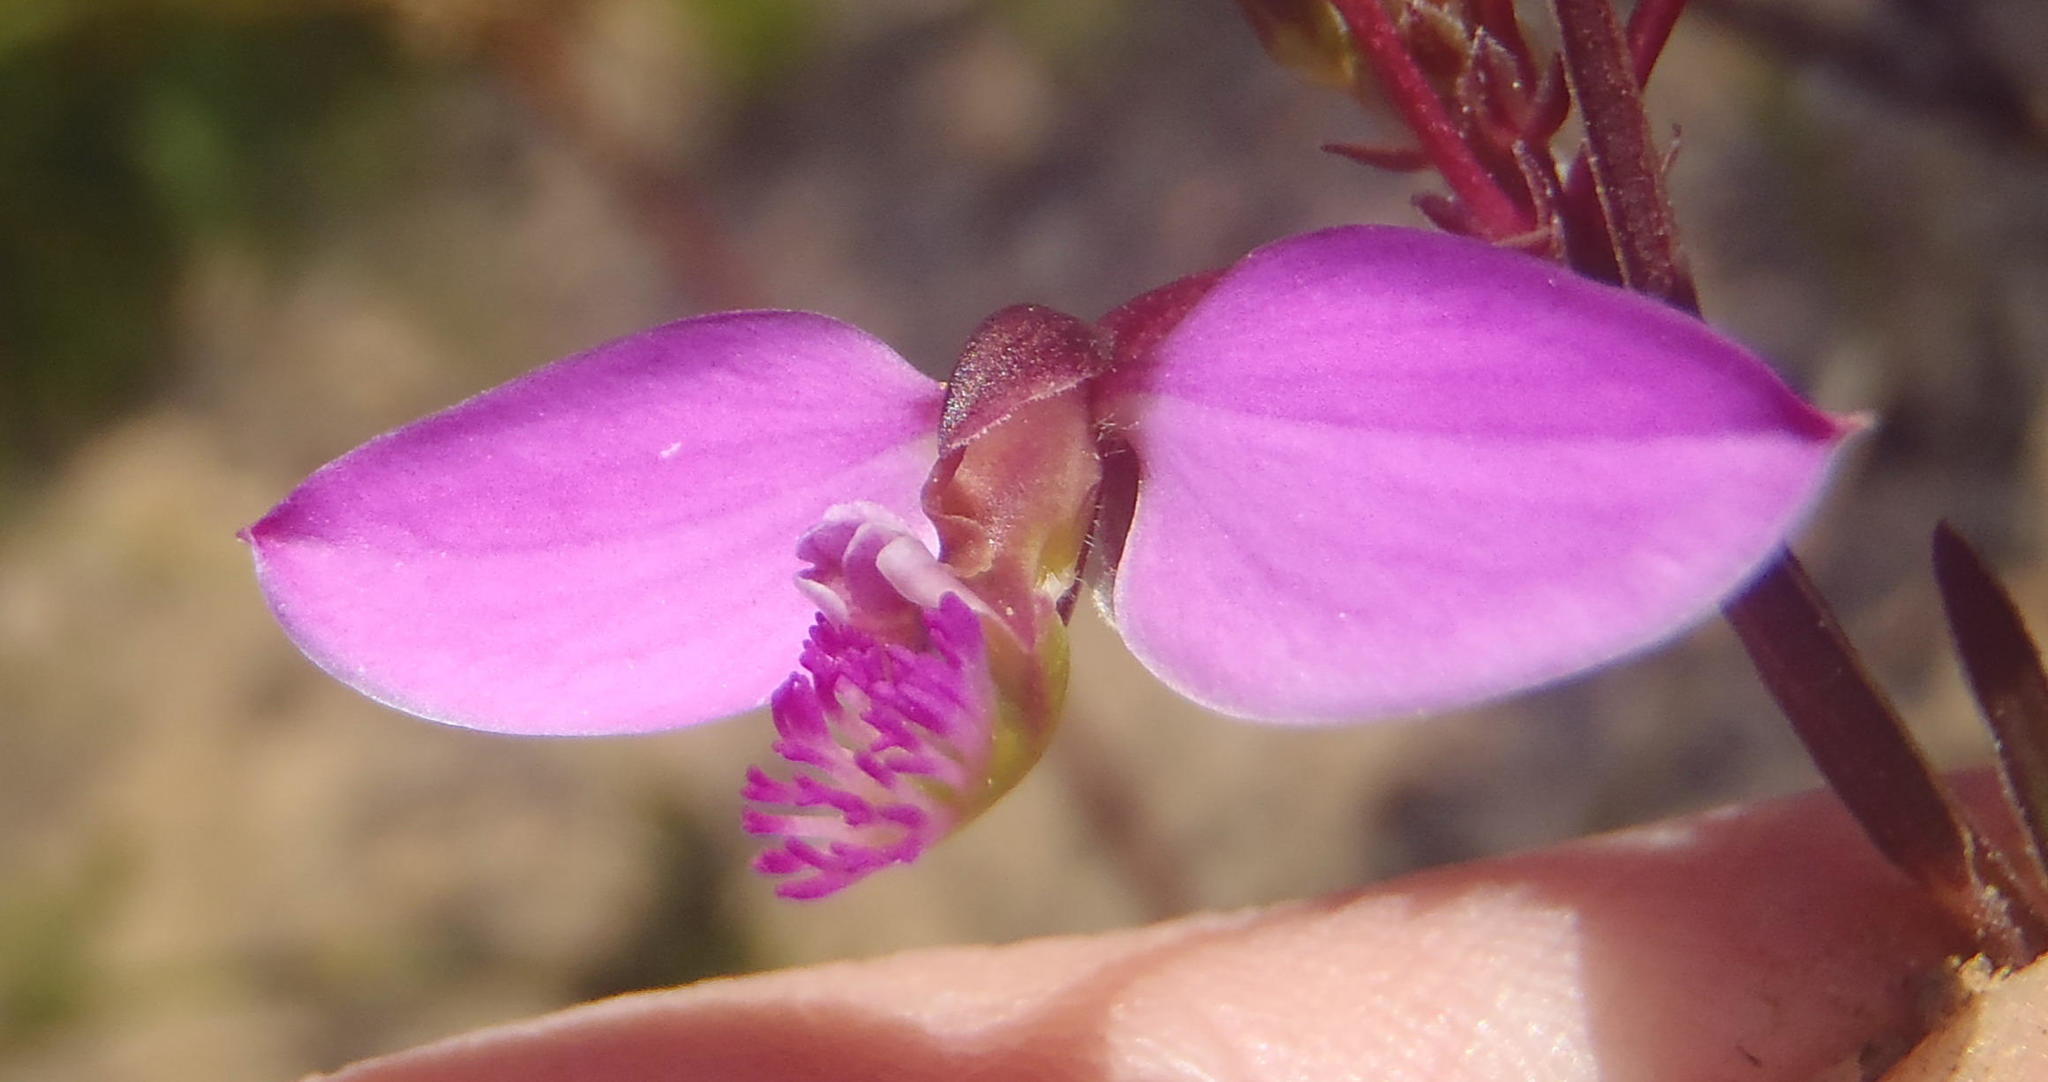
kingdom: Plantae
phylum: Tracheophyta
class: Magnoliopsida
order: Fabales
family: Polygalaceae
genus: Polygala
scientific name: Polygala triquetra
